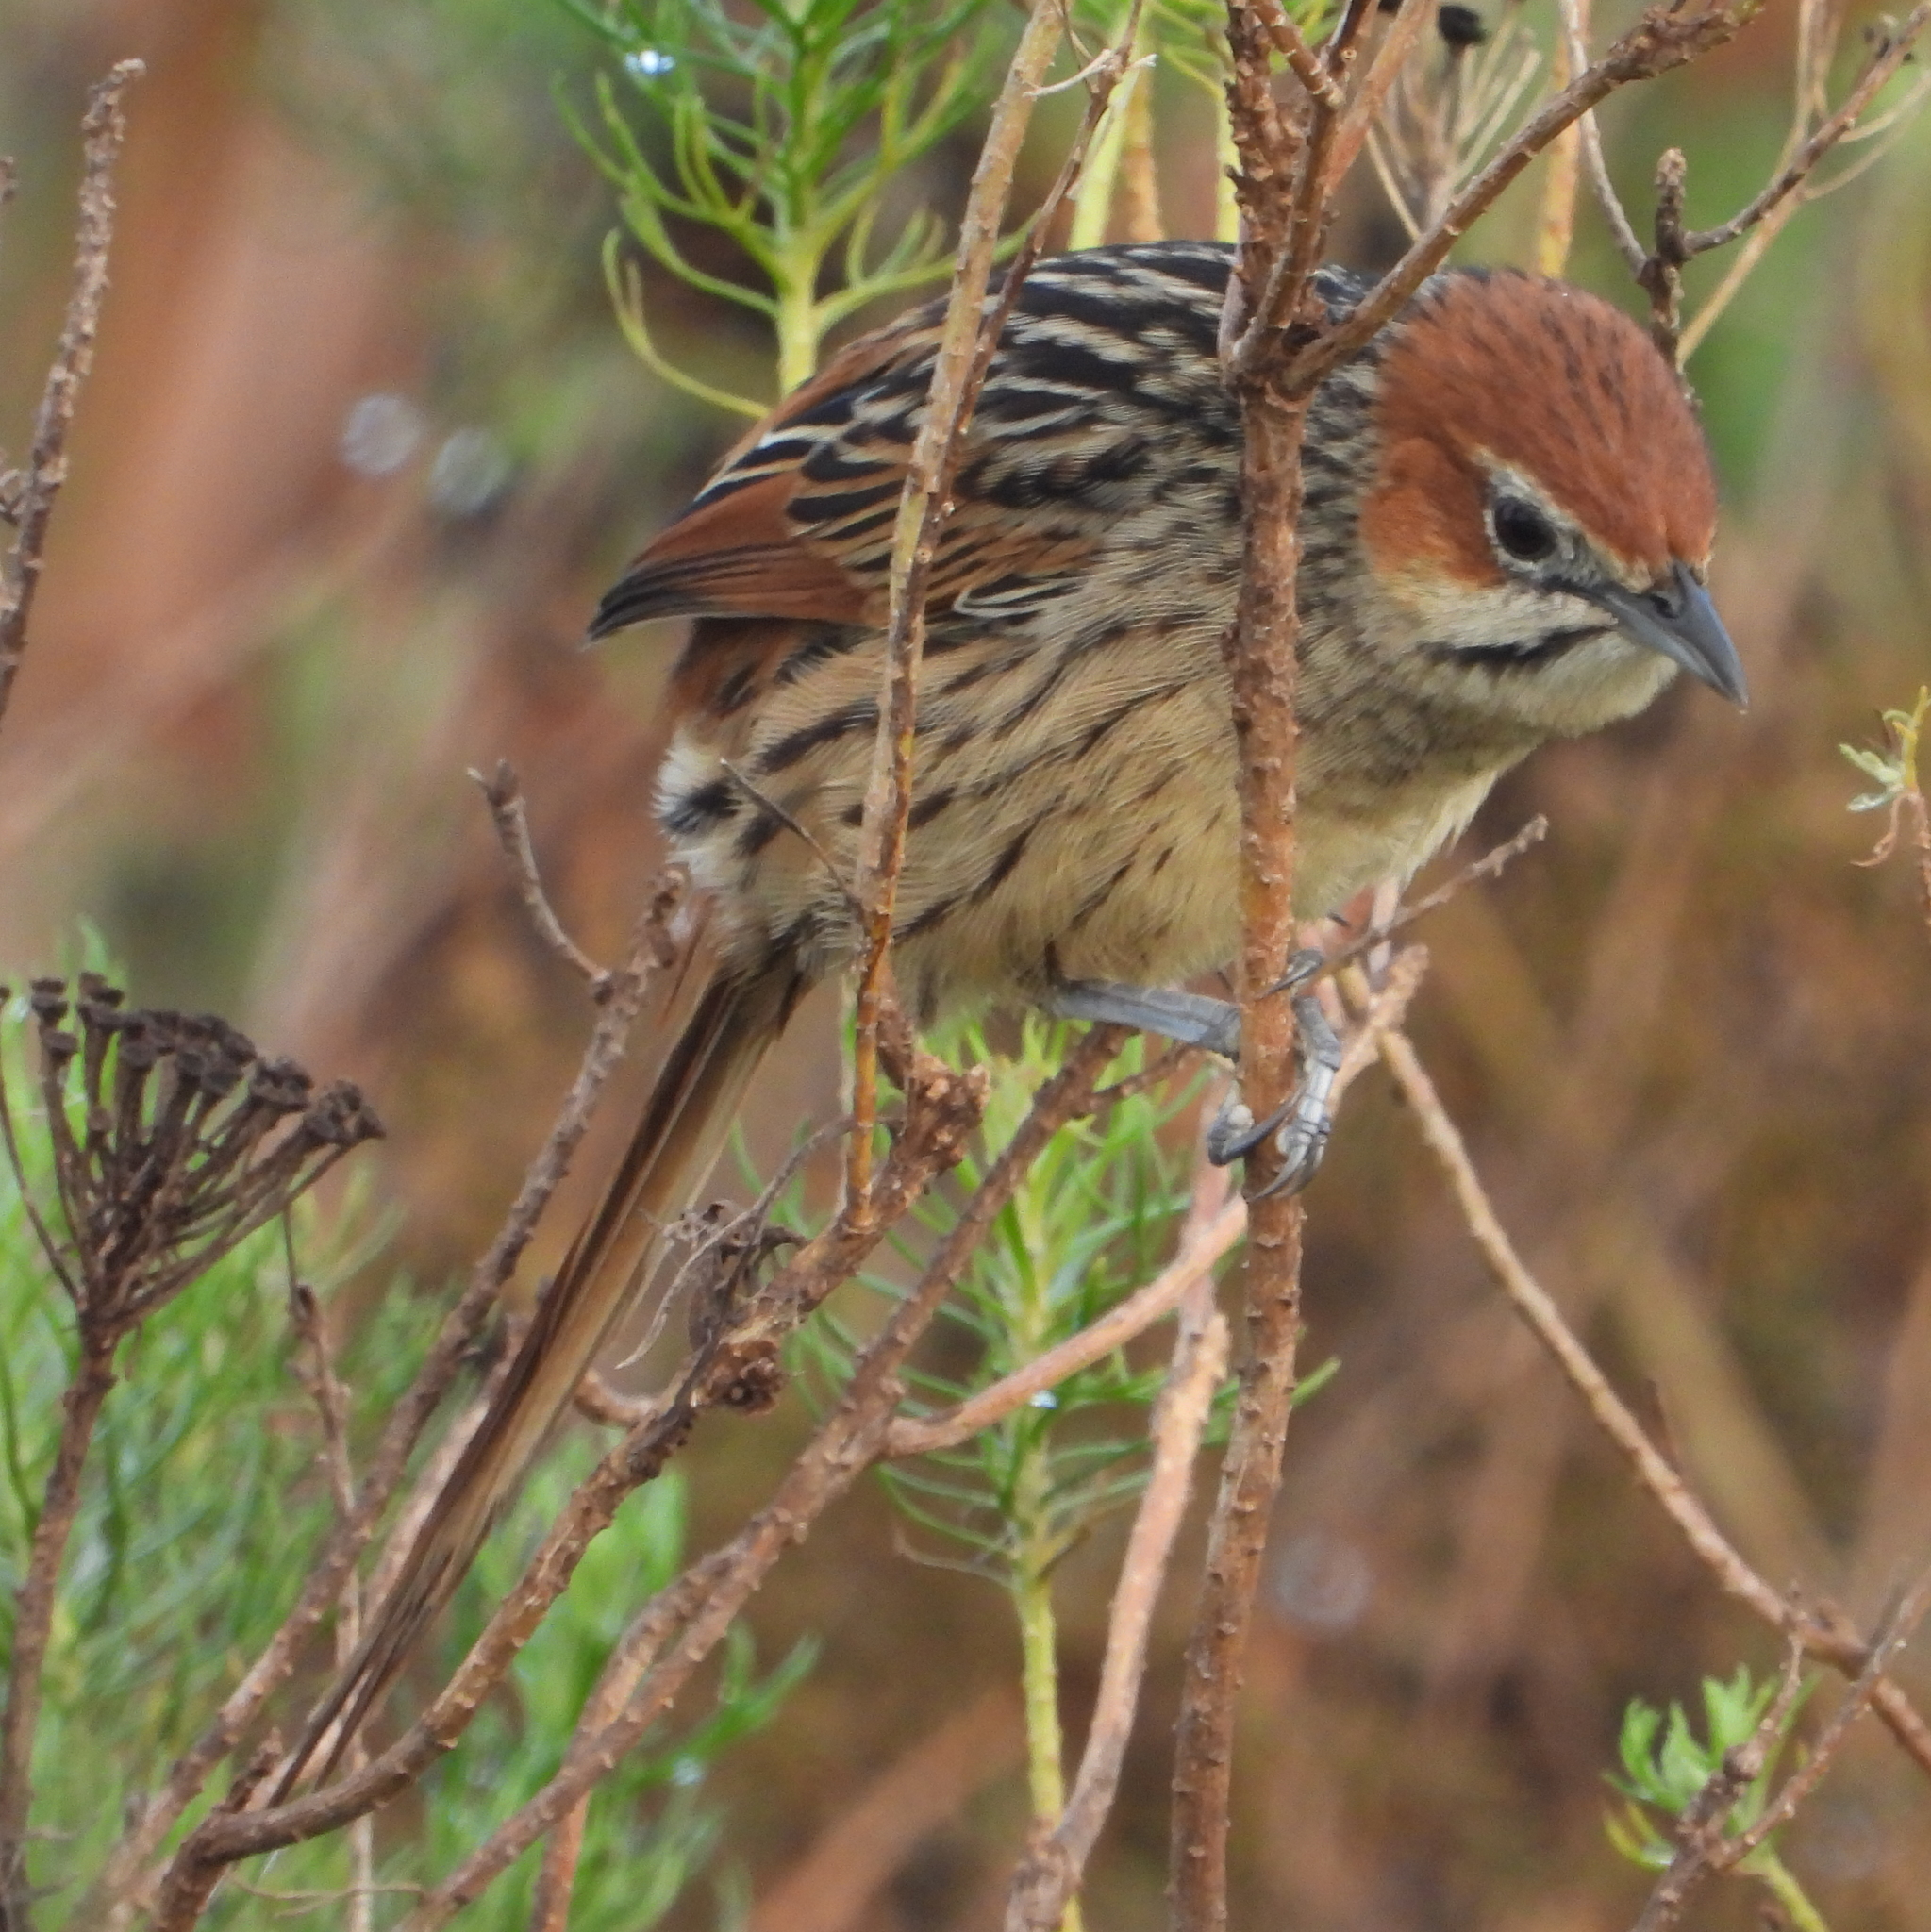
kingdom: Animalia
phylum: Chordata
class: Aves
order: Passeriformes
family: Macrosphenidae
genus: Sphenoeacus
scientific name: Sphenoeacus afer
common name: Cape grassbird
